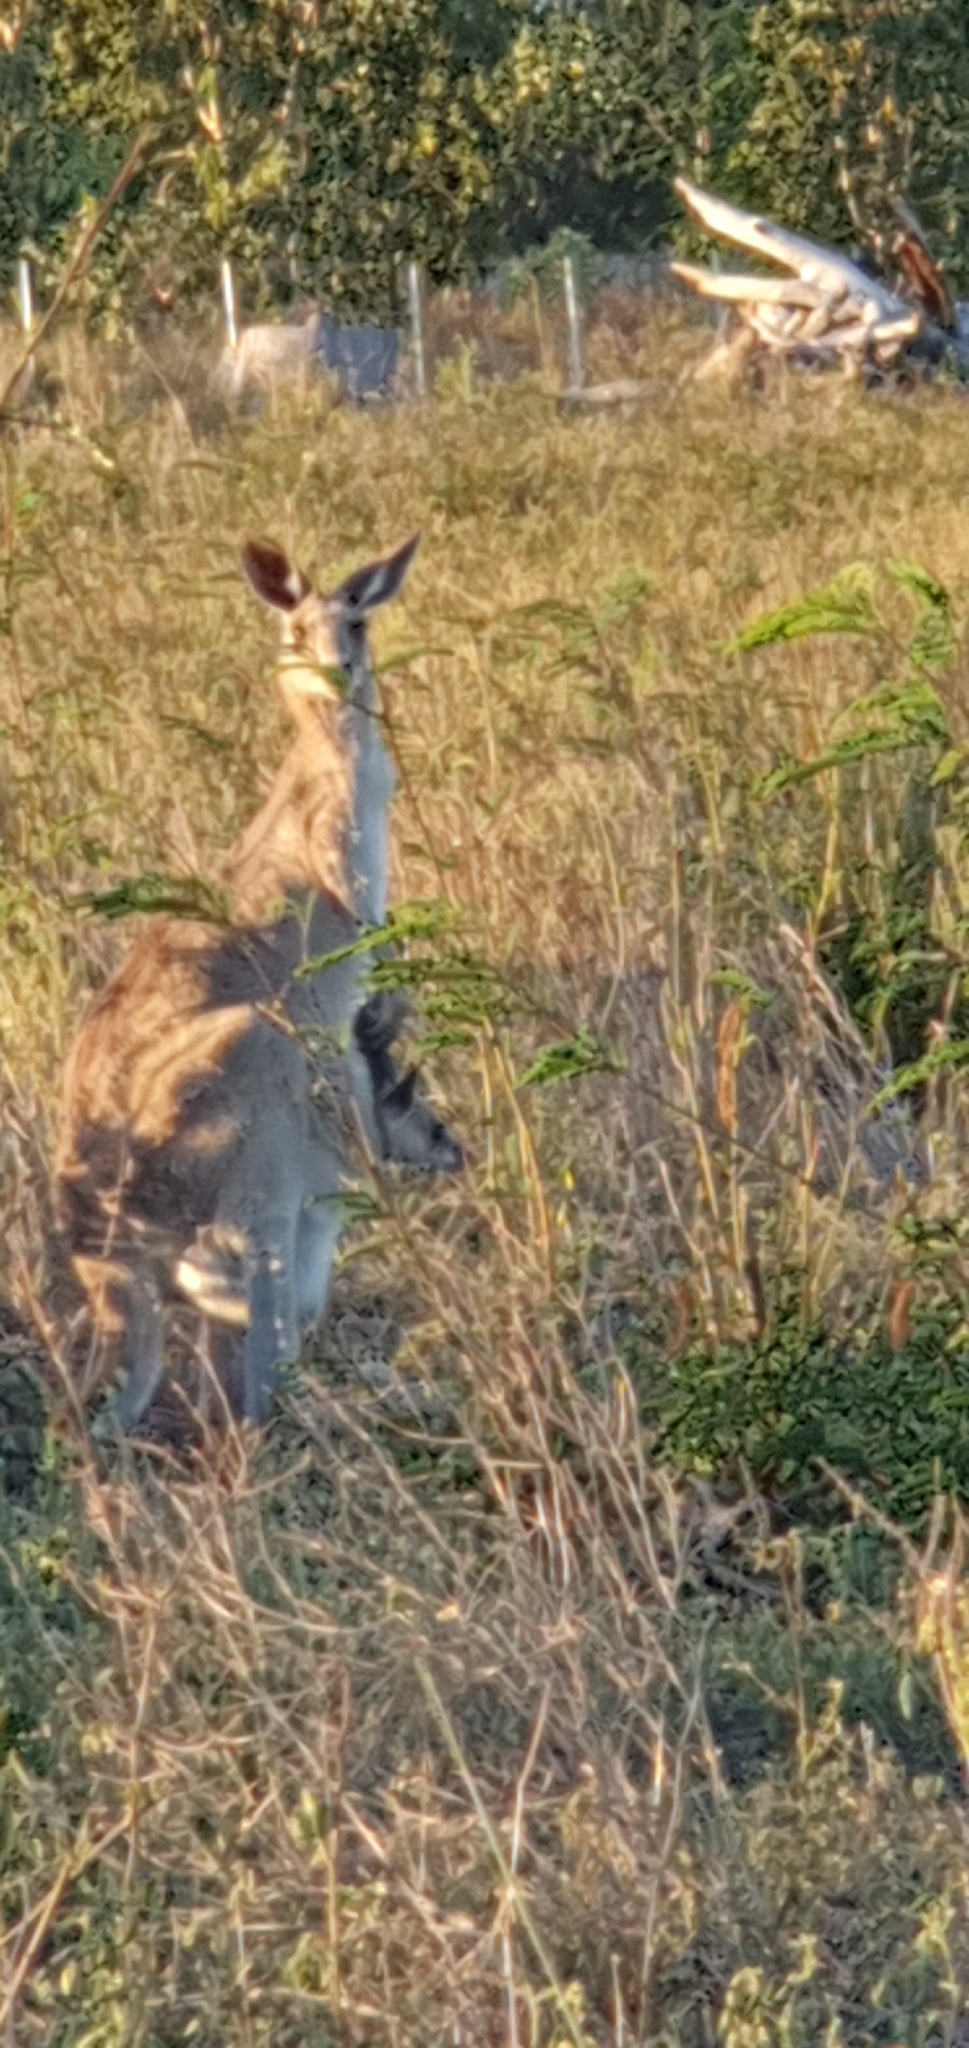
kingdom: Animalia
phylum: Chordata
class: Mammalia
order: Diprotodontia
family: Macropodidae
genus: Macropus
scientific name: Macropus giganteus
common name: Eastern grey kangaroo
